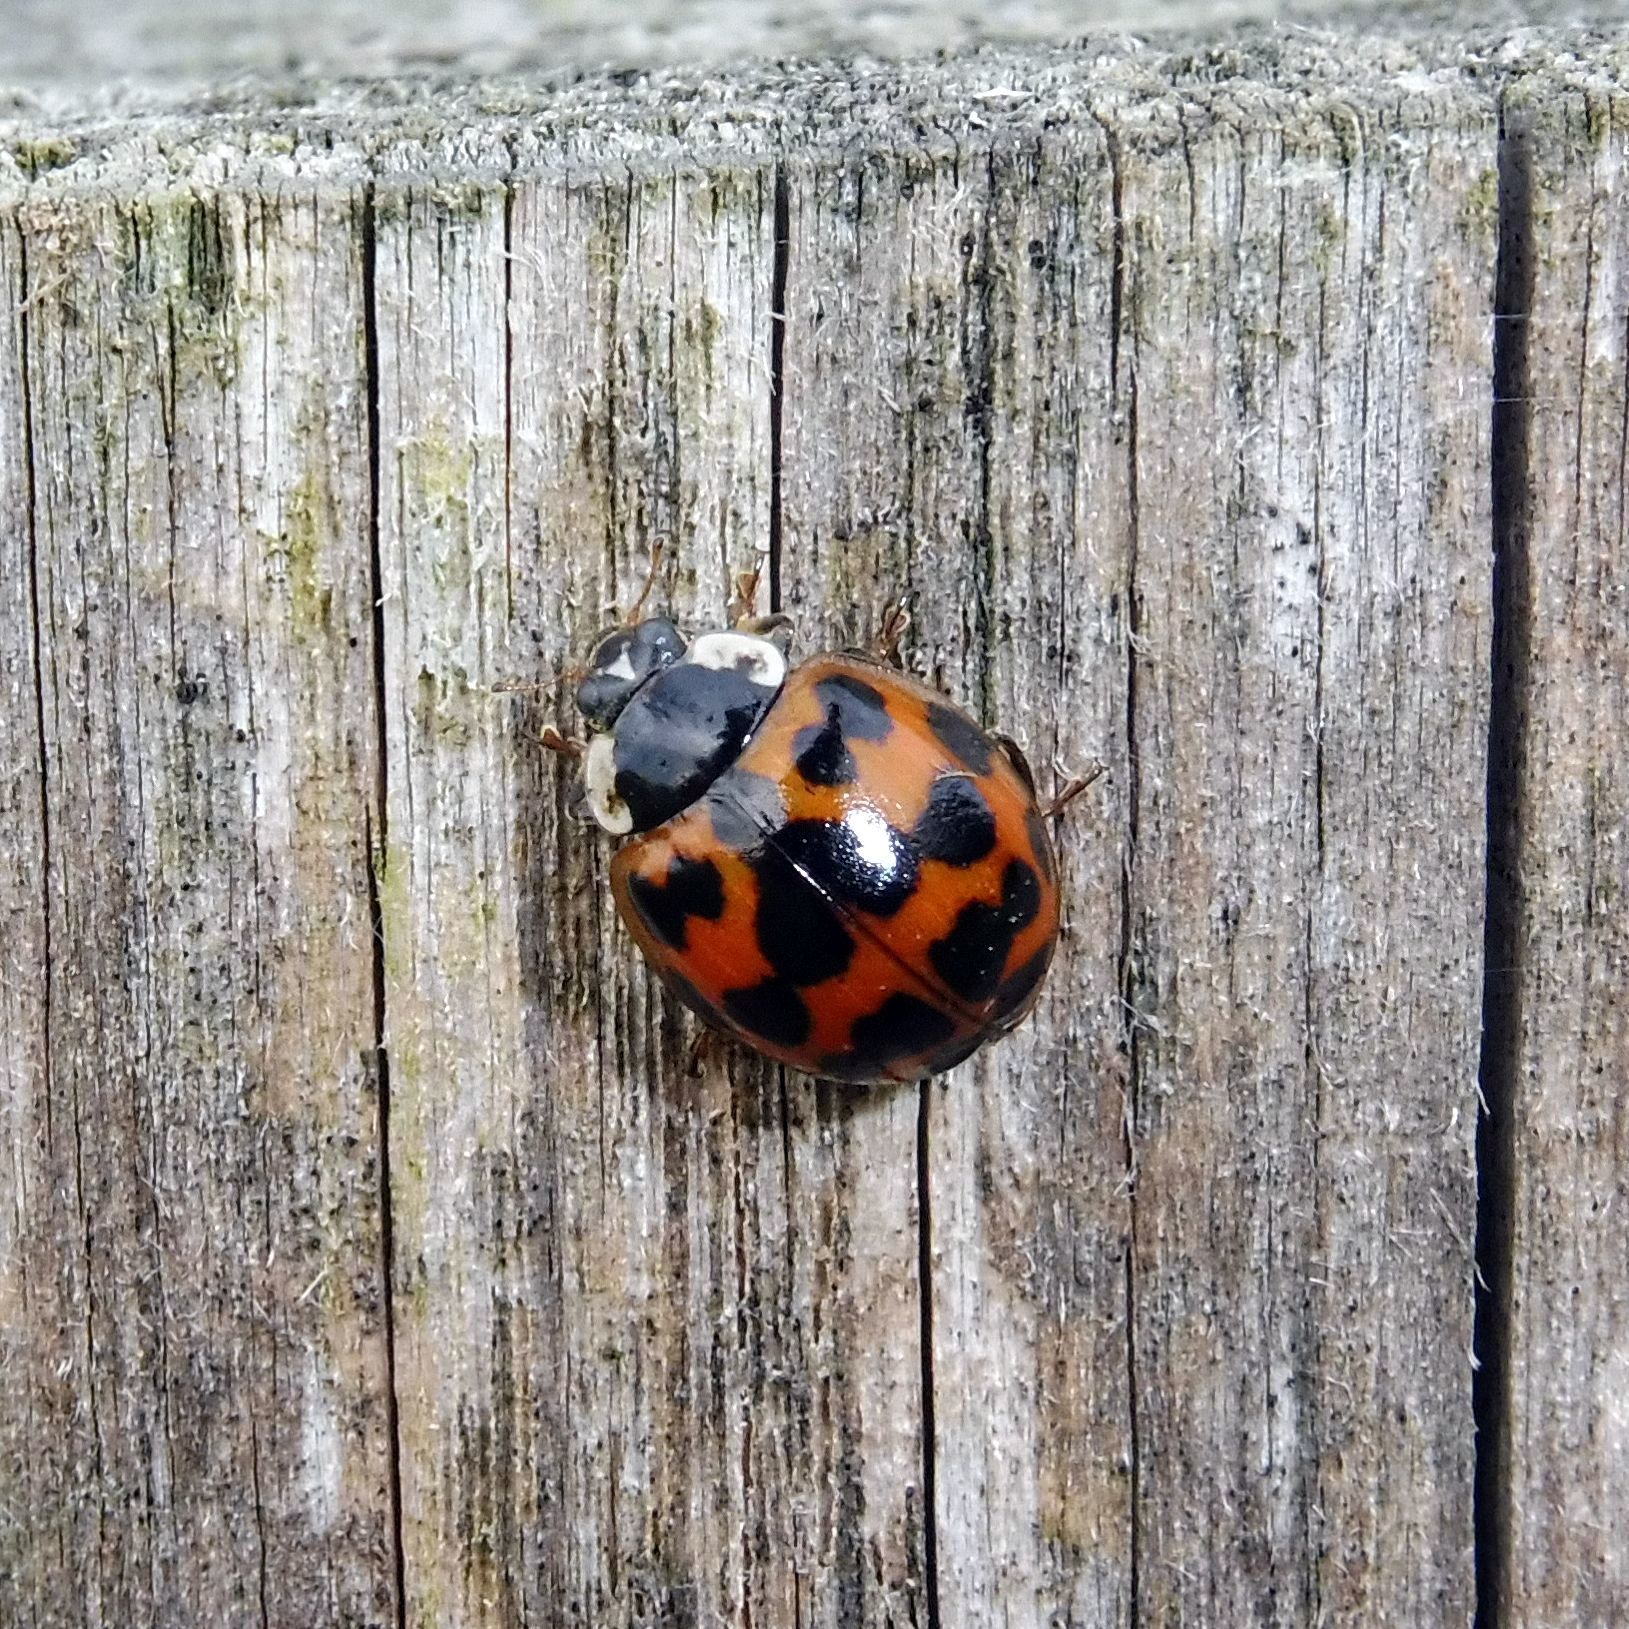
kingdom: Animalia
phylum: Arthropoda
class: Insecta
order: Coleoptera
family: Coccinellidae
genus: Harmonia
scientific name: Harmonia axyridis
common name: Harlequin ladybird
